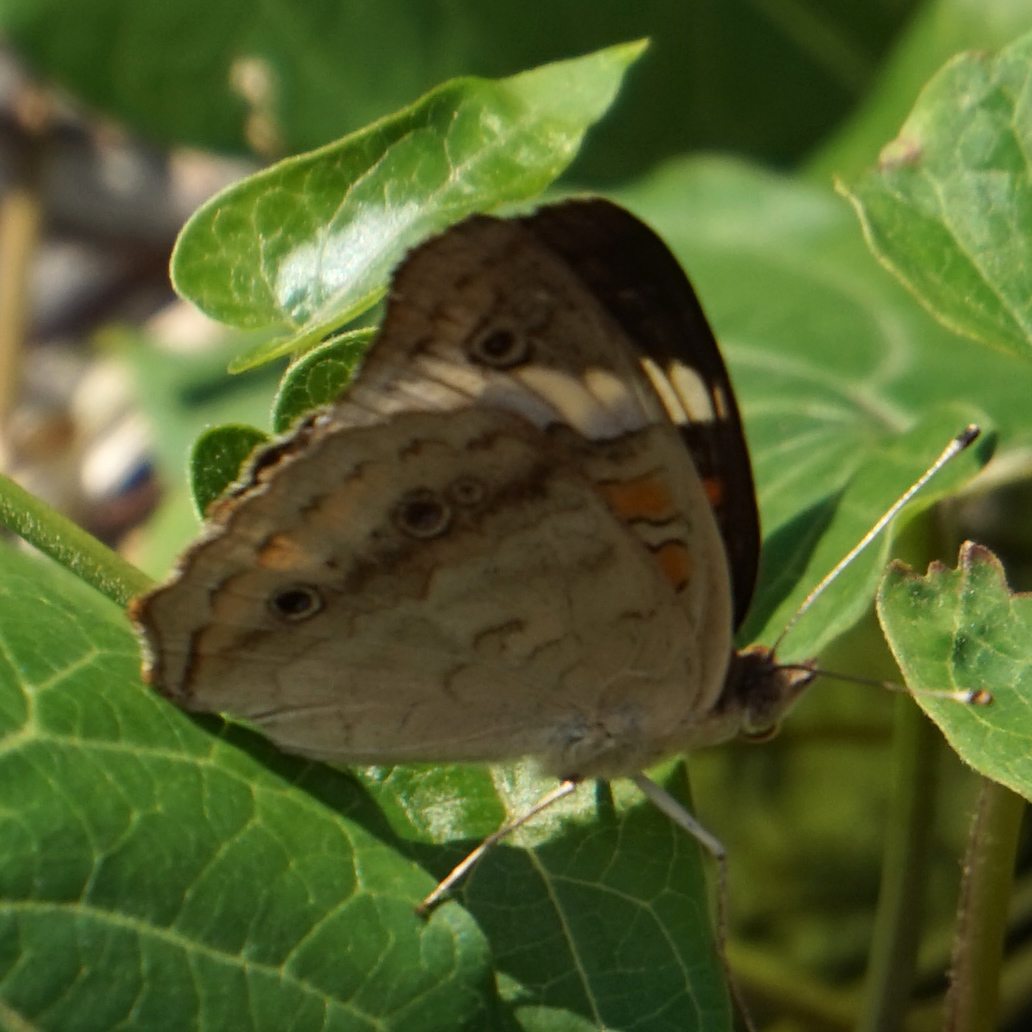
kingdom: Animalia
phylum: Arthropoda
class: Insecta
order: Lepidoptera
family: Nymphalidae
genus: Junonia
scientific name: Junonia coenia
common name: Common buckeye
